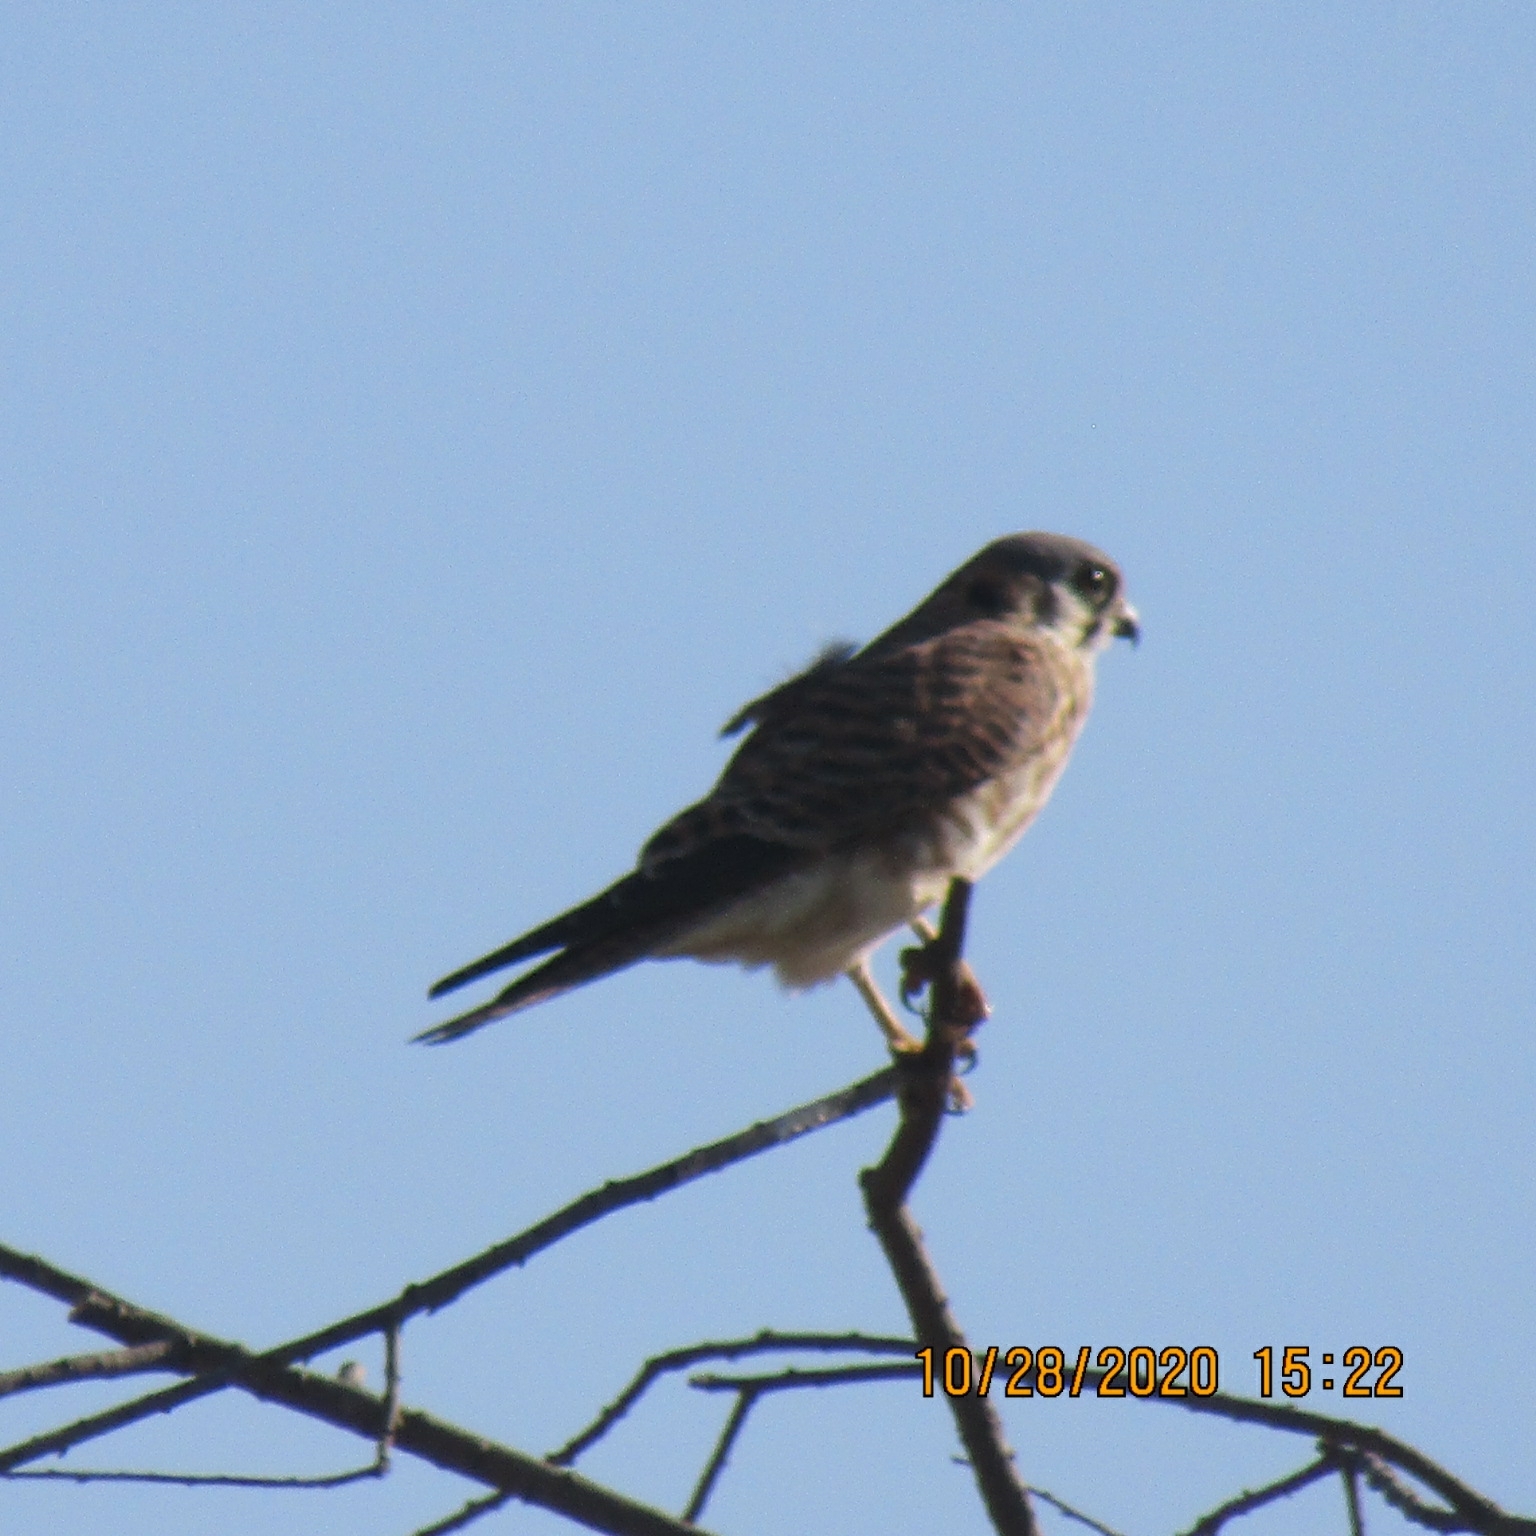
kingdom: Animalia
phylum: Chordata
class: Aves
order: Falconiformes
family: Falconidae
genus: Falco
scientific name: Falco sparverius
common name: American kestrel
